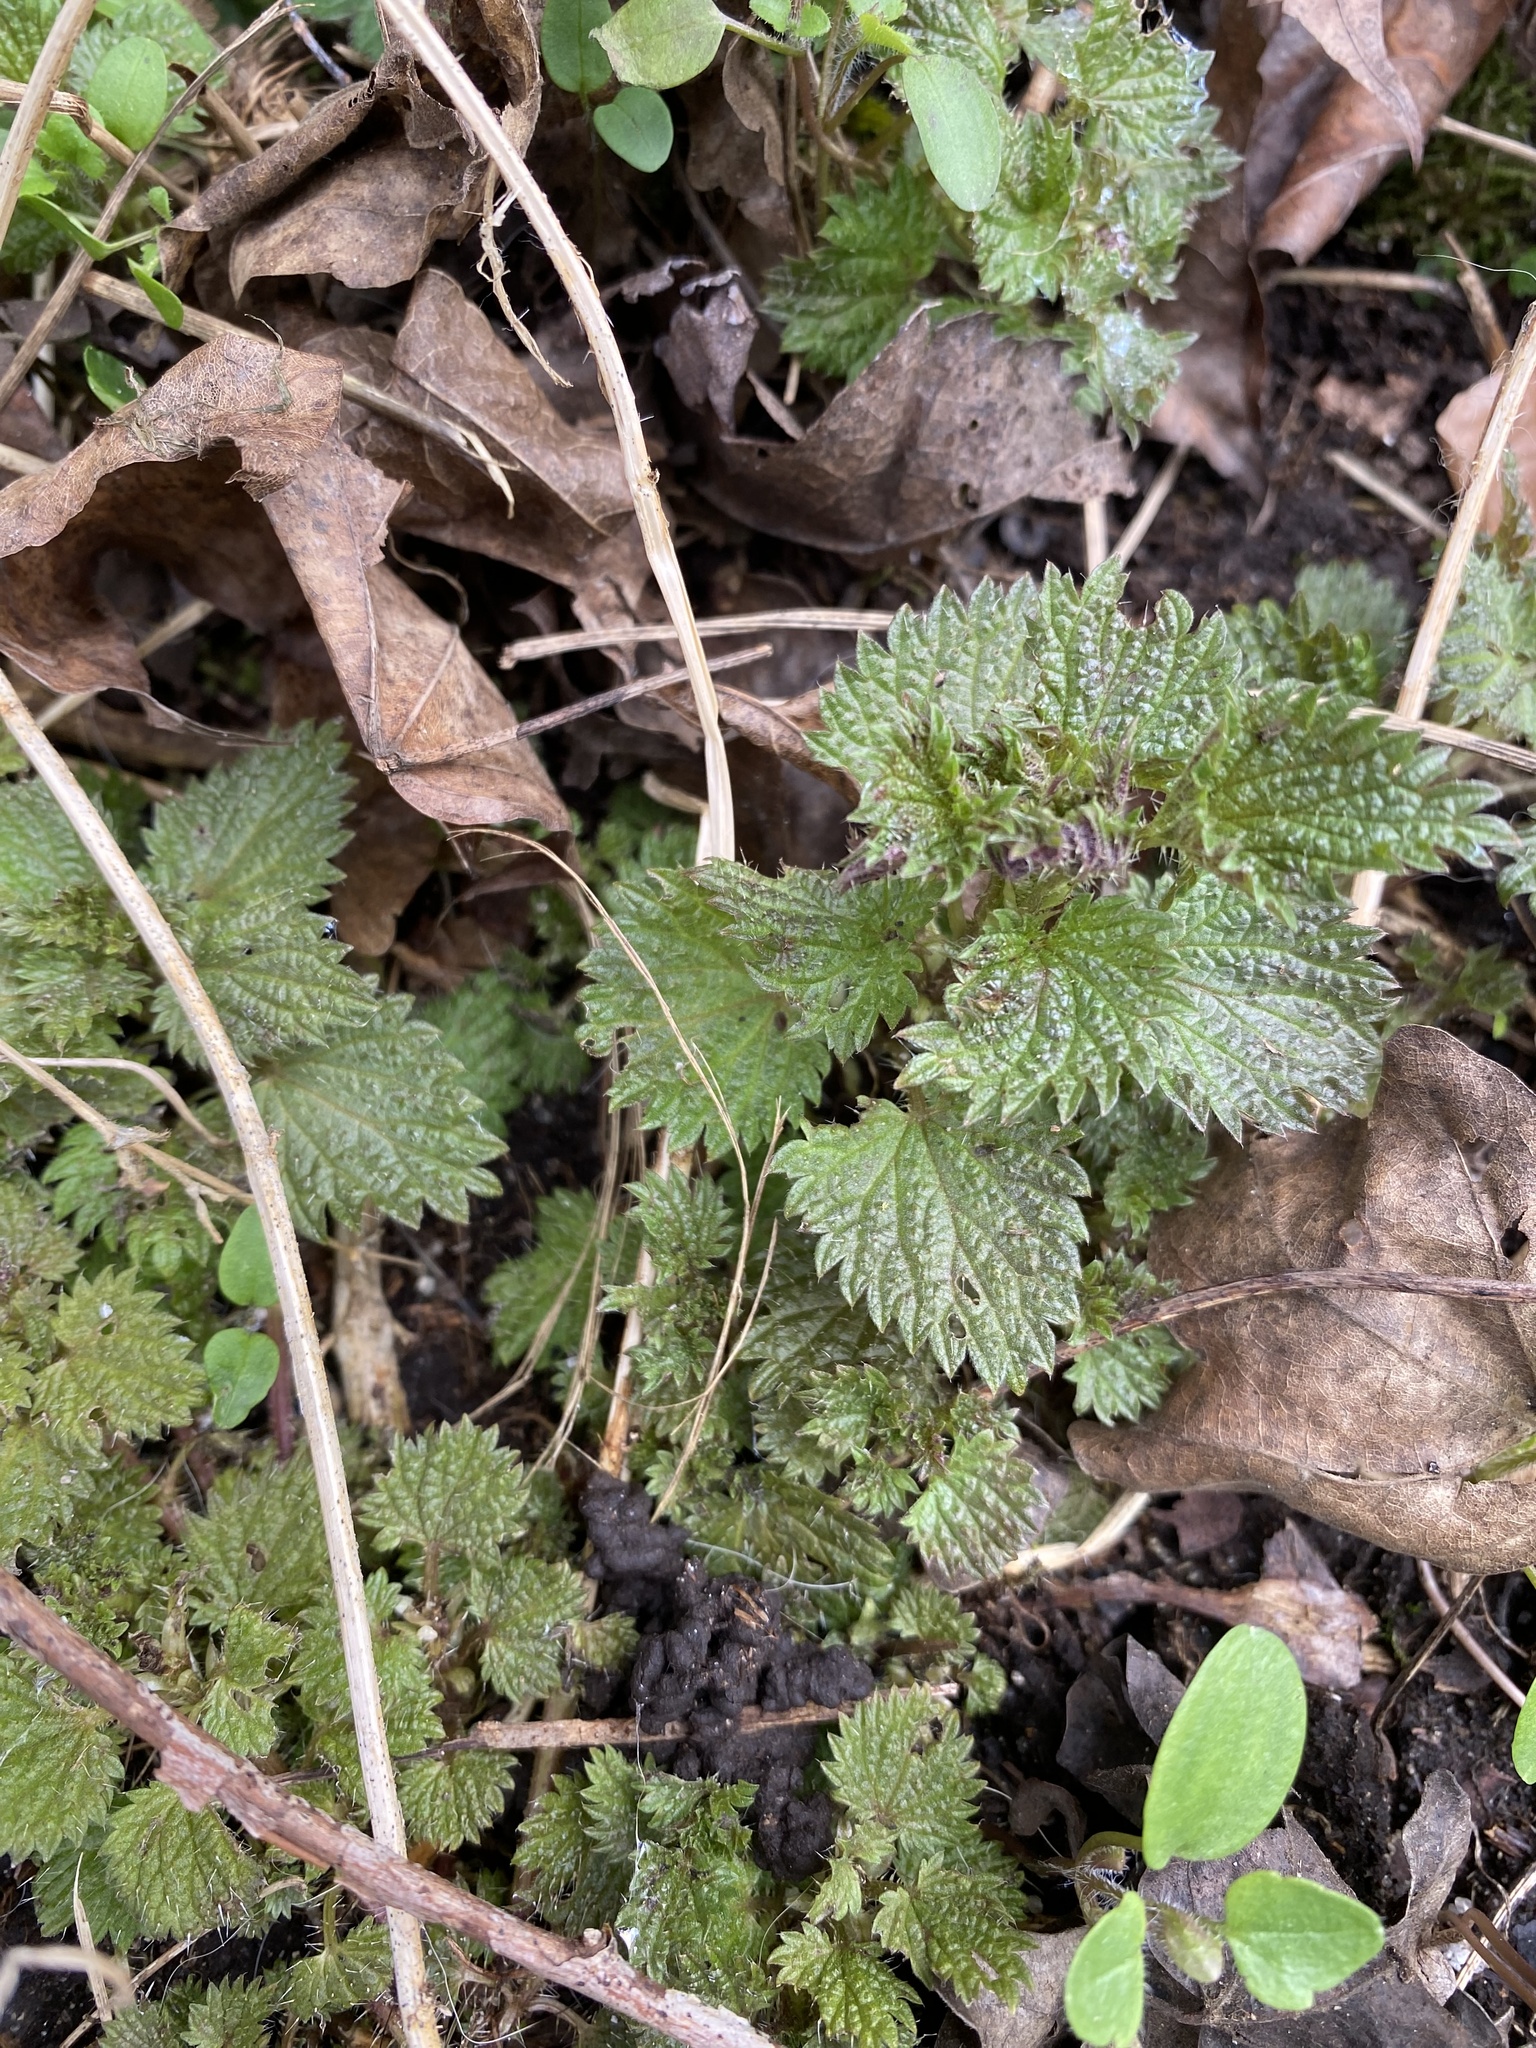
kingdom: Plantae
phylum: Tracheophyta
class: Magnoliopsida
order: Rosales
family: Urticaceae
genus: Urtica
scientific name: Urtica dioica
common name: Common nettle
